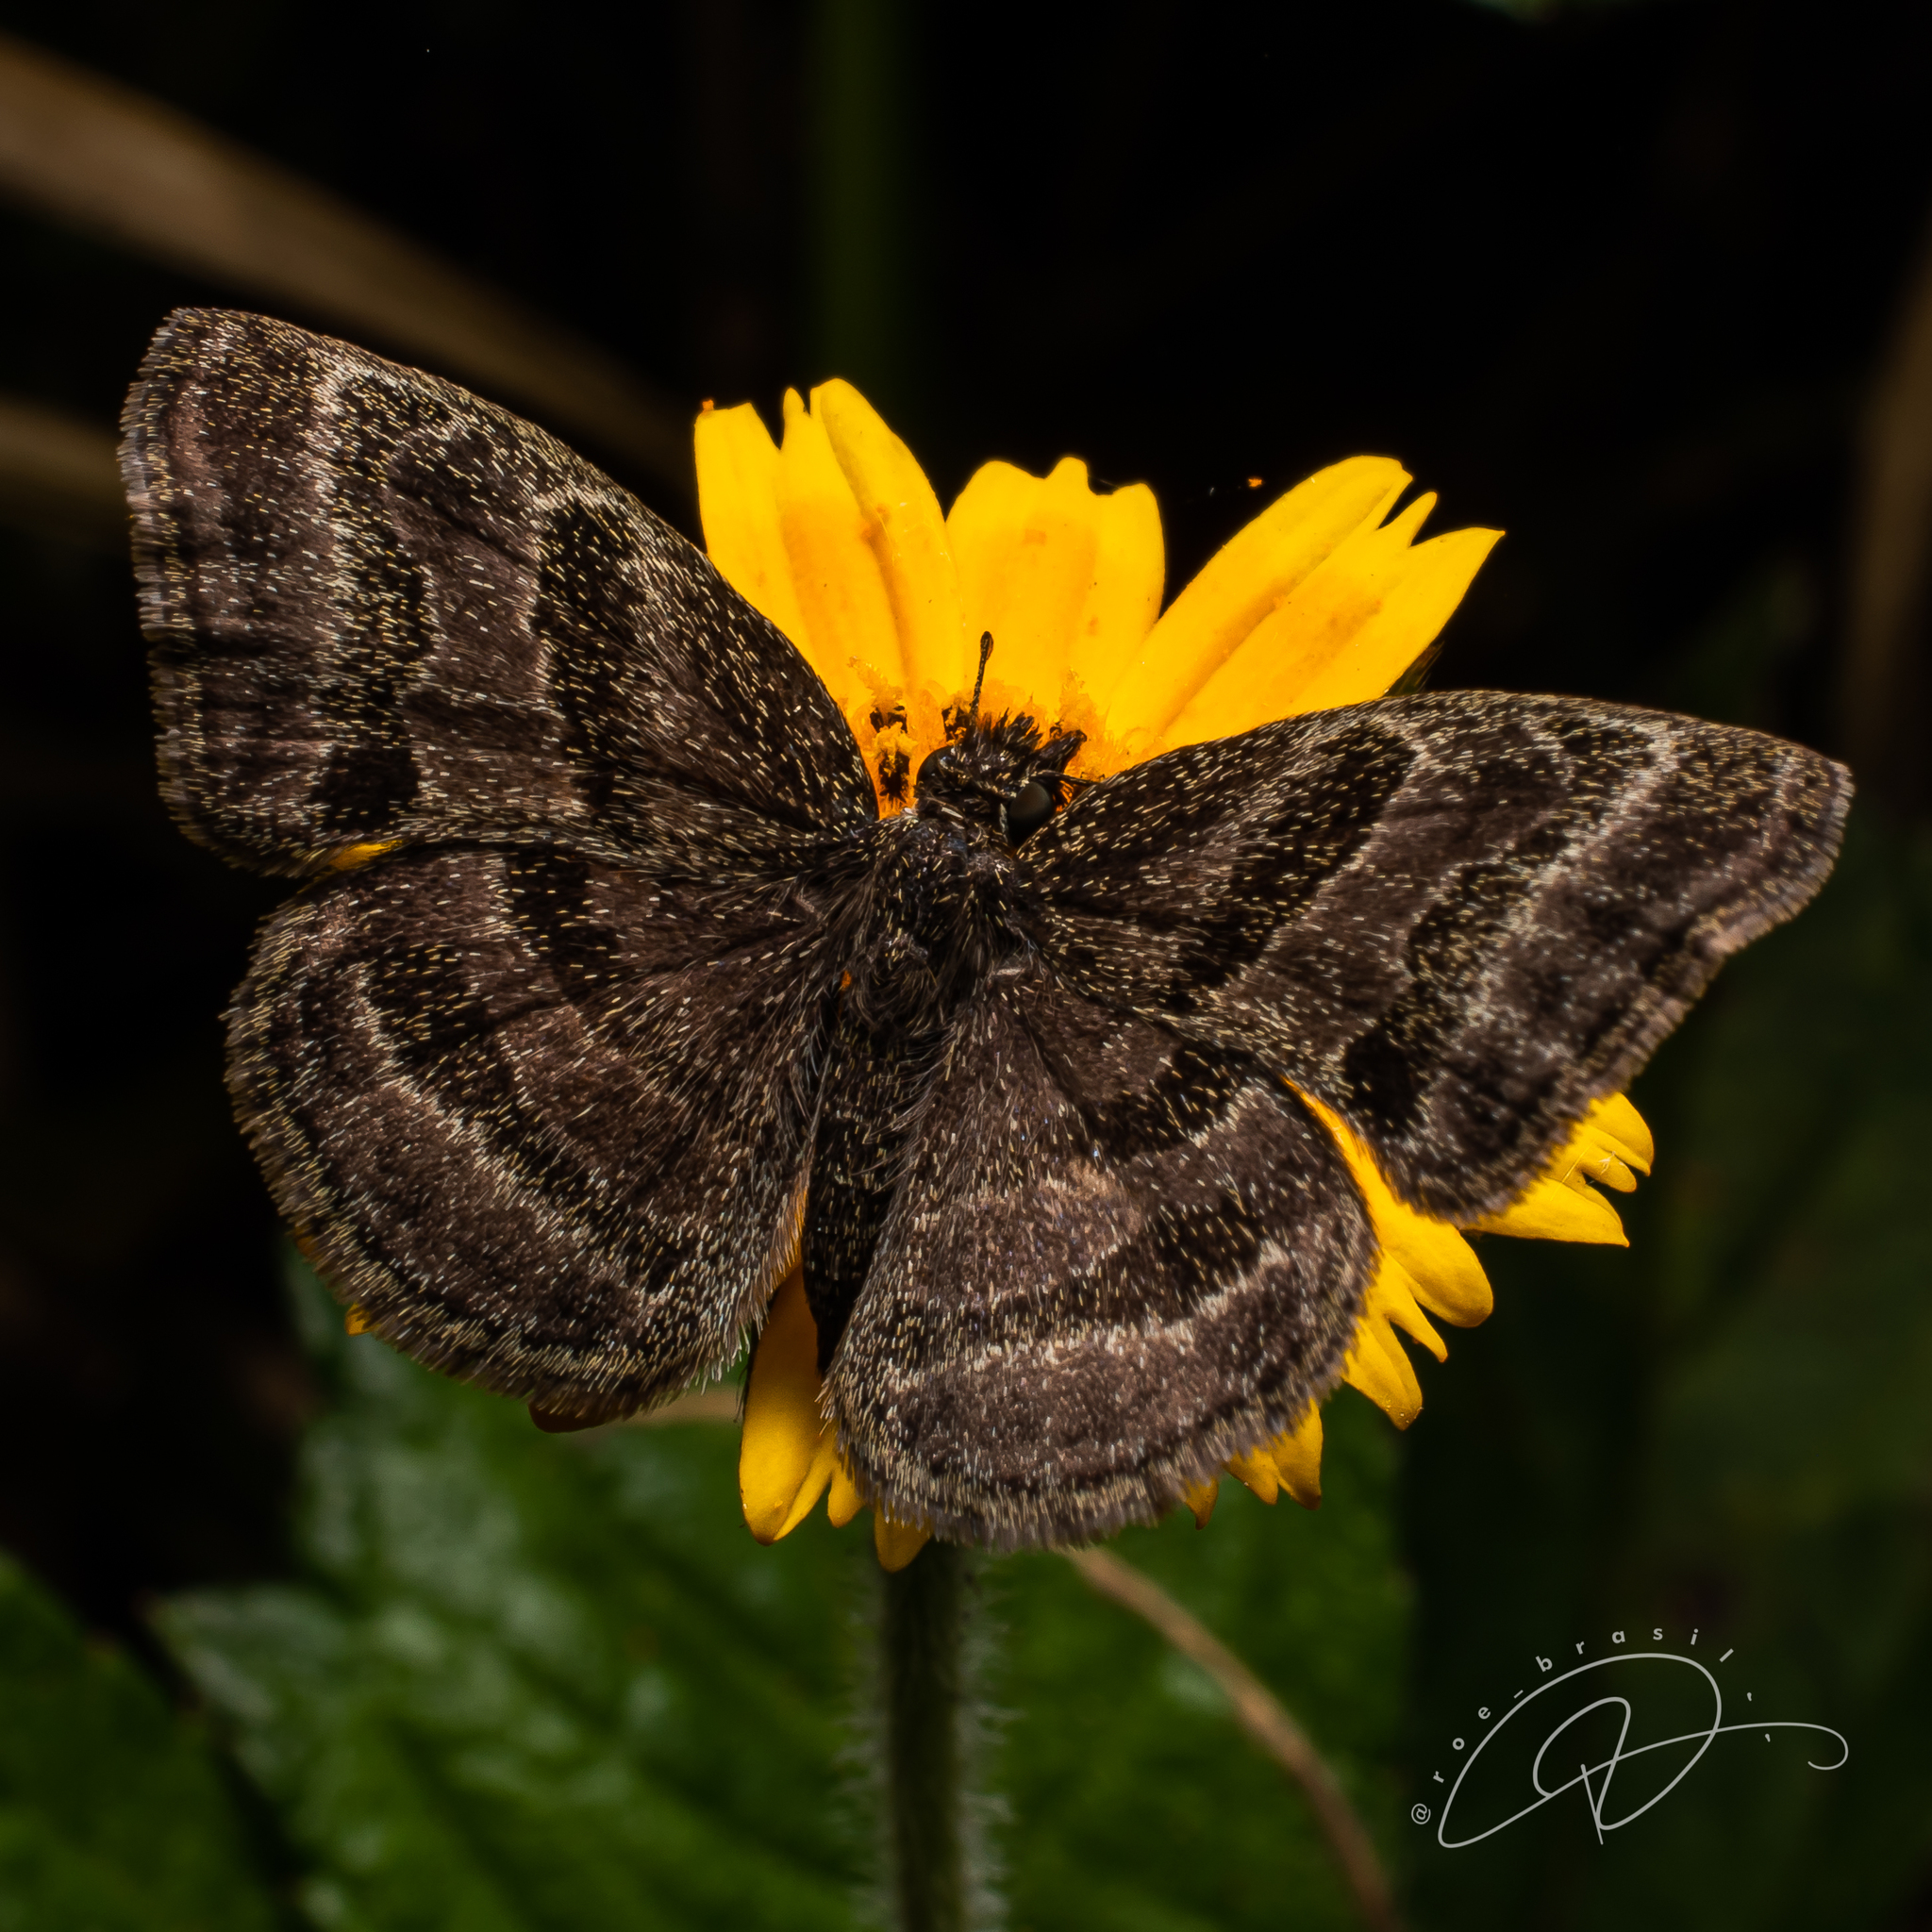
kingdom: Animalia
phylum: Arthropoda
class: Insecta
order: Lepidoptera
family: Hesperiidae
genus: Trina
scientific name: Trina geometrina
